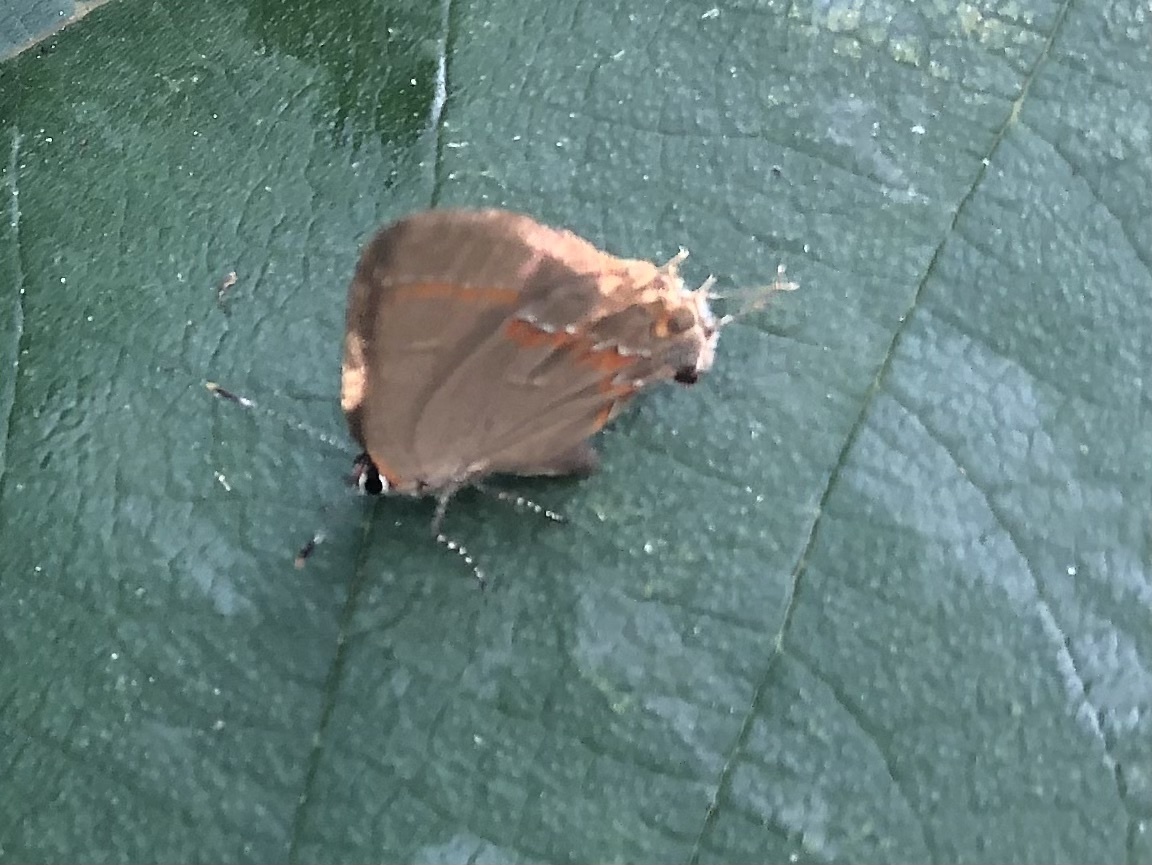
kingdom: Animalia
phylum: Arthropoda
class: Insecta
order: Lepidoptera
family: Lycaenidae
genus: Calycopis
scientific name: Calycopis cecrops
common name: Red-banded hairstreak
